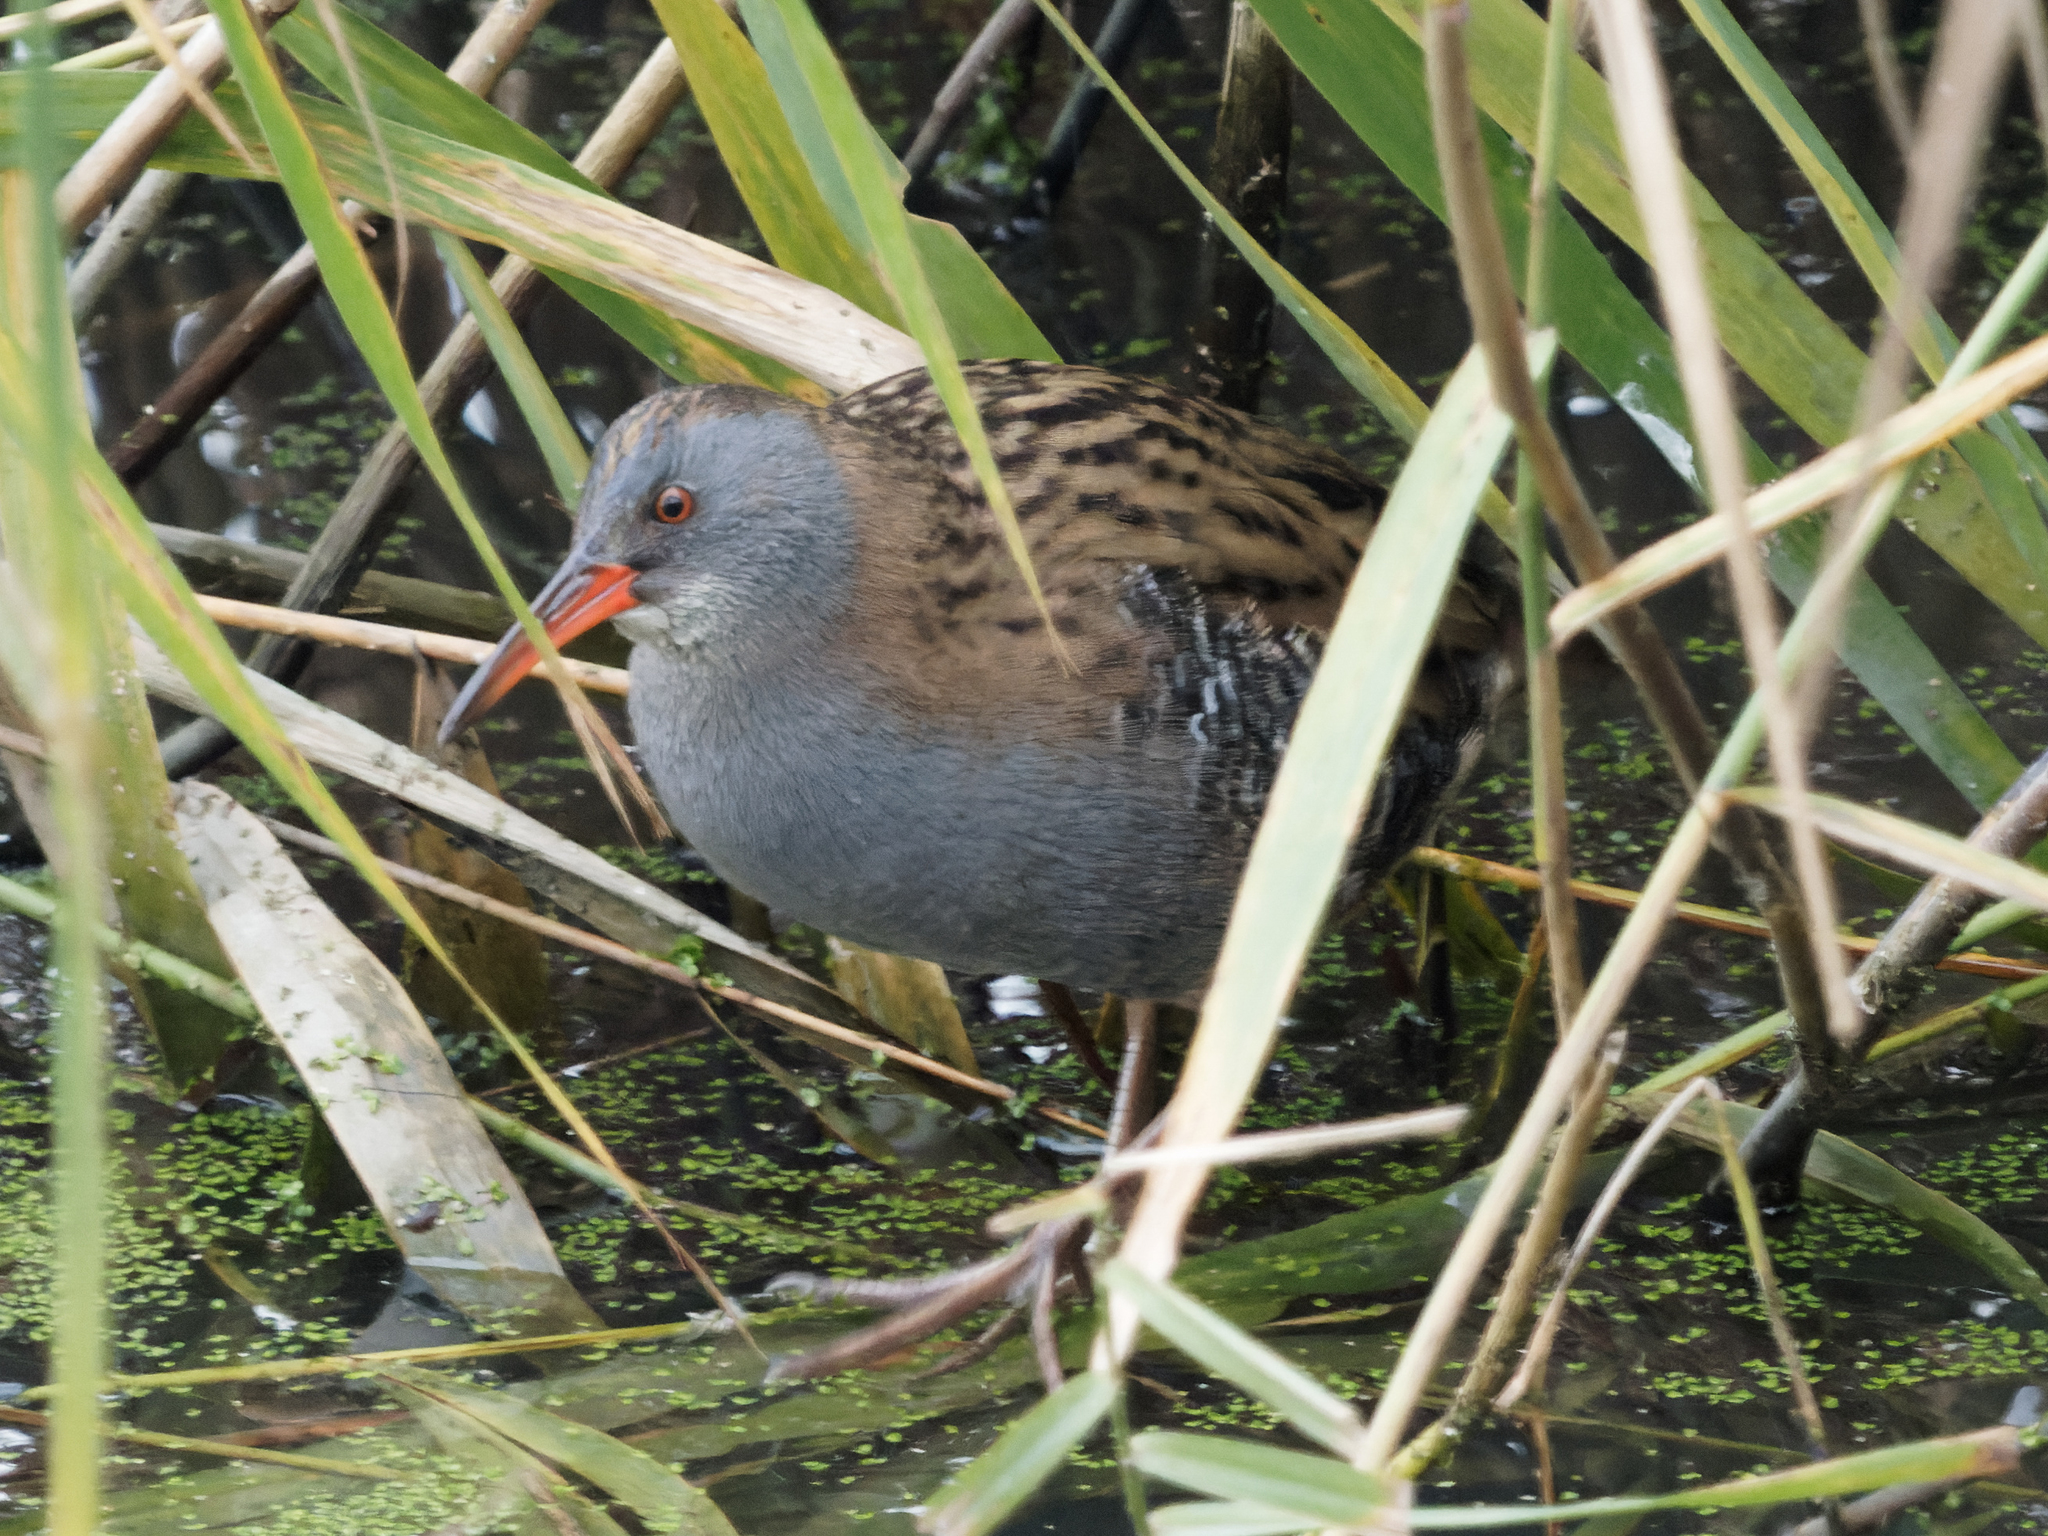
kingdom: Animalia
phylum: Chordata
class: Aves
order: Gruiformes
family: Rallidae
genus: Rallus
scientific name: Rallus aquaticus
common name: Water rail
